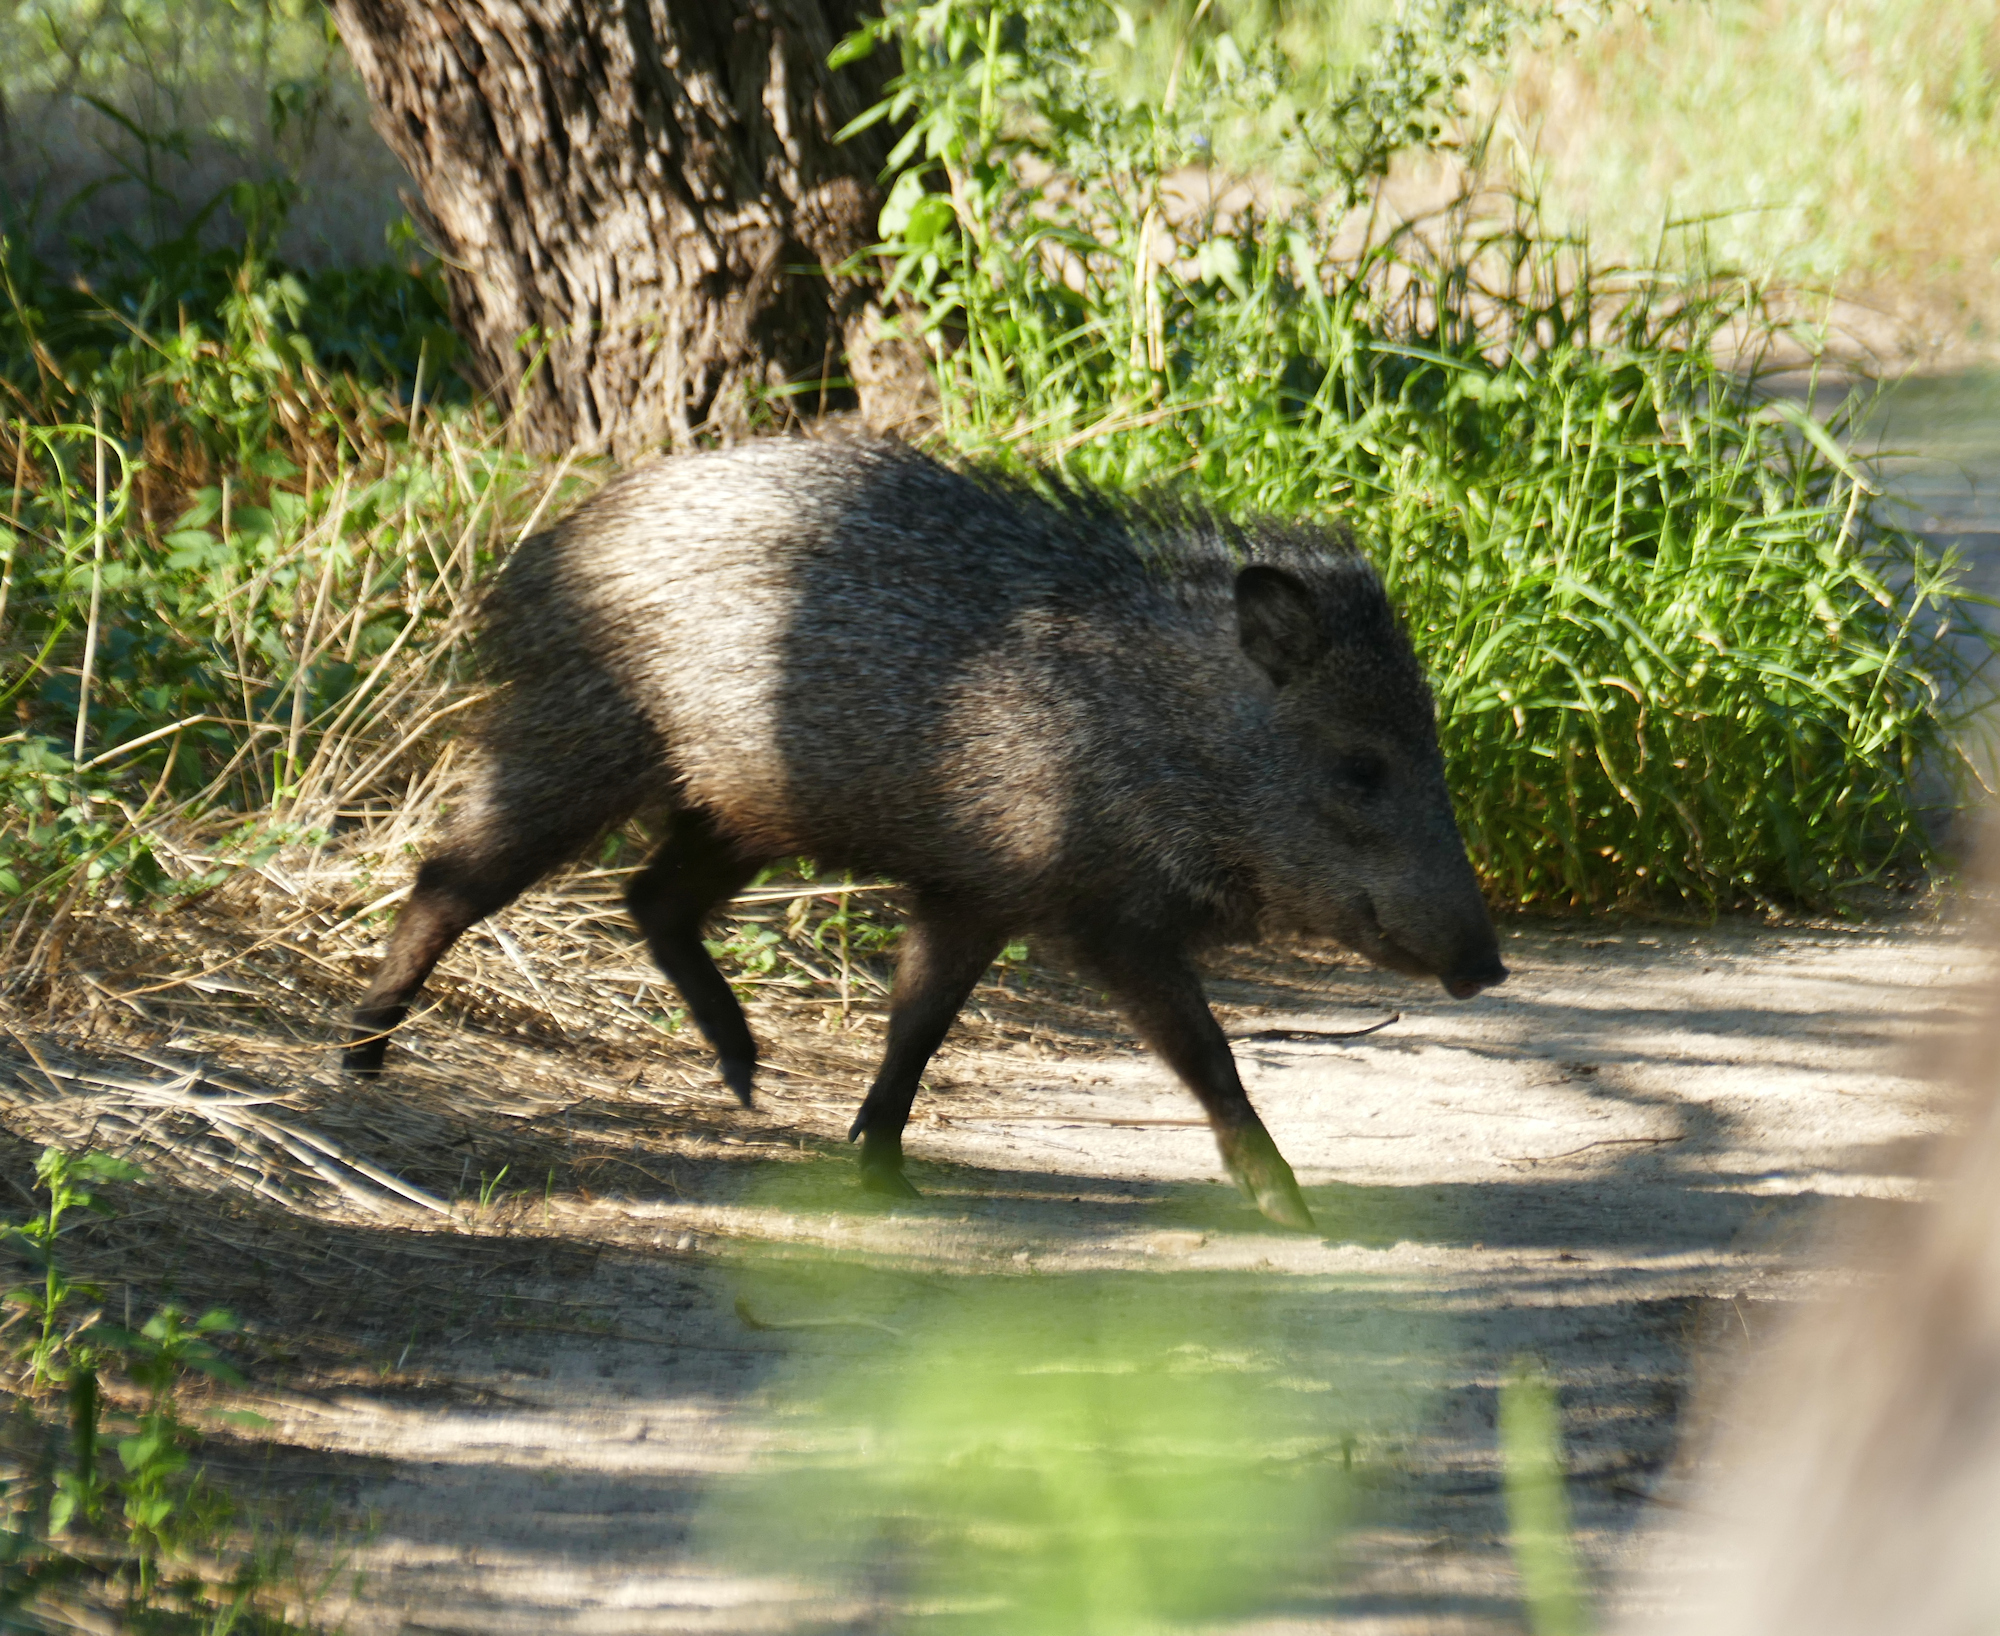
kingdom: Animalia
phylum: Chordata
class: Mammalia
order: Artiodactyla
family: Tayassuidae
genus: Pecari
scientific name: Pecari tajacu
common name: Collared peccary
